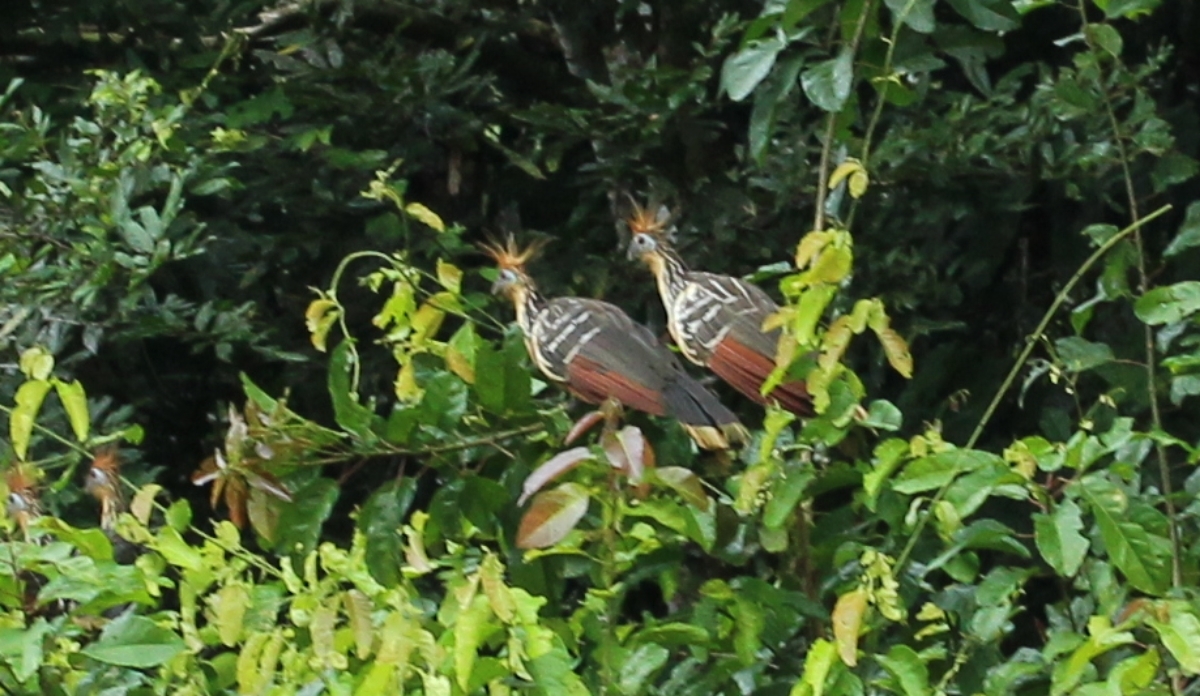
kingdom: Animalia
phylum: Chordata
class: Aves
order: Opisthocomiformes
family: Opisthocomidae
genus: Opisthocomus
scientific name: Opisthocomus hoazin
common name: Hoatzin
